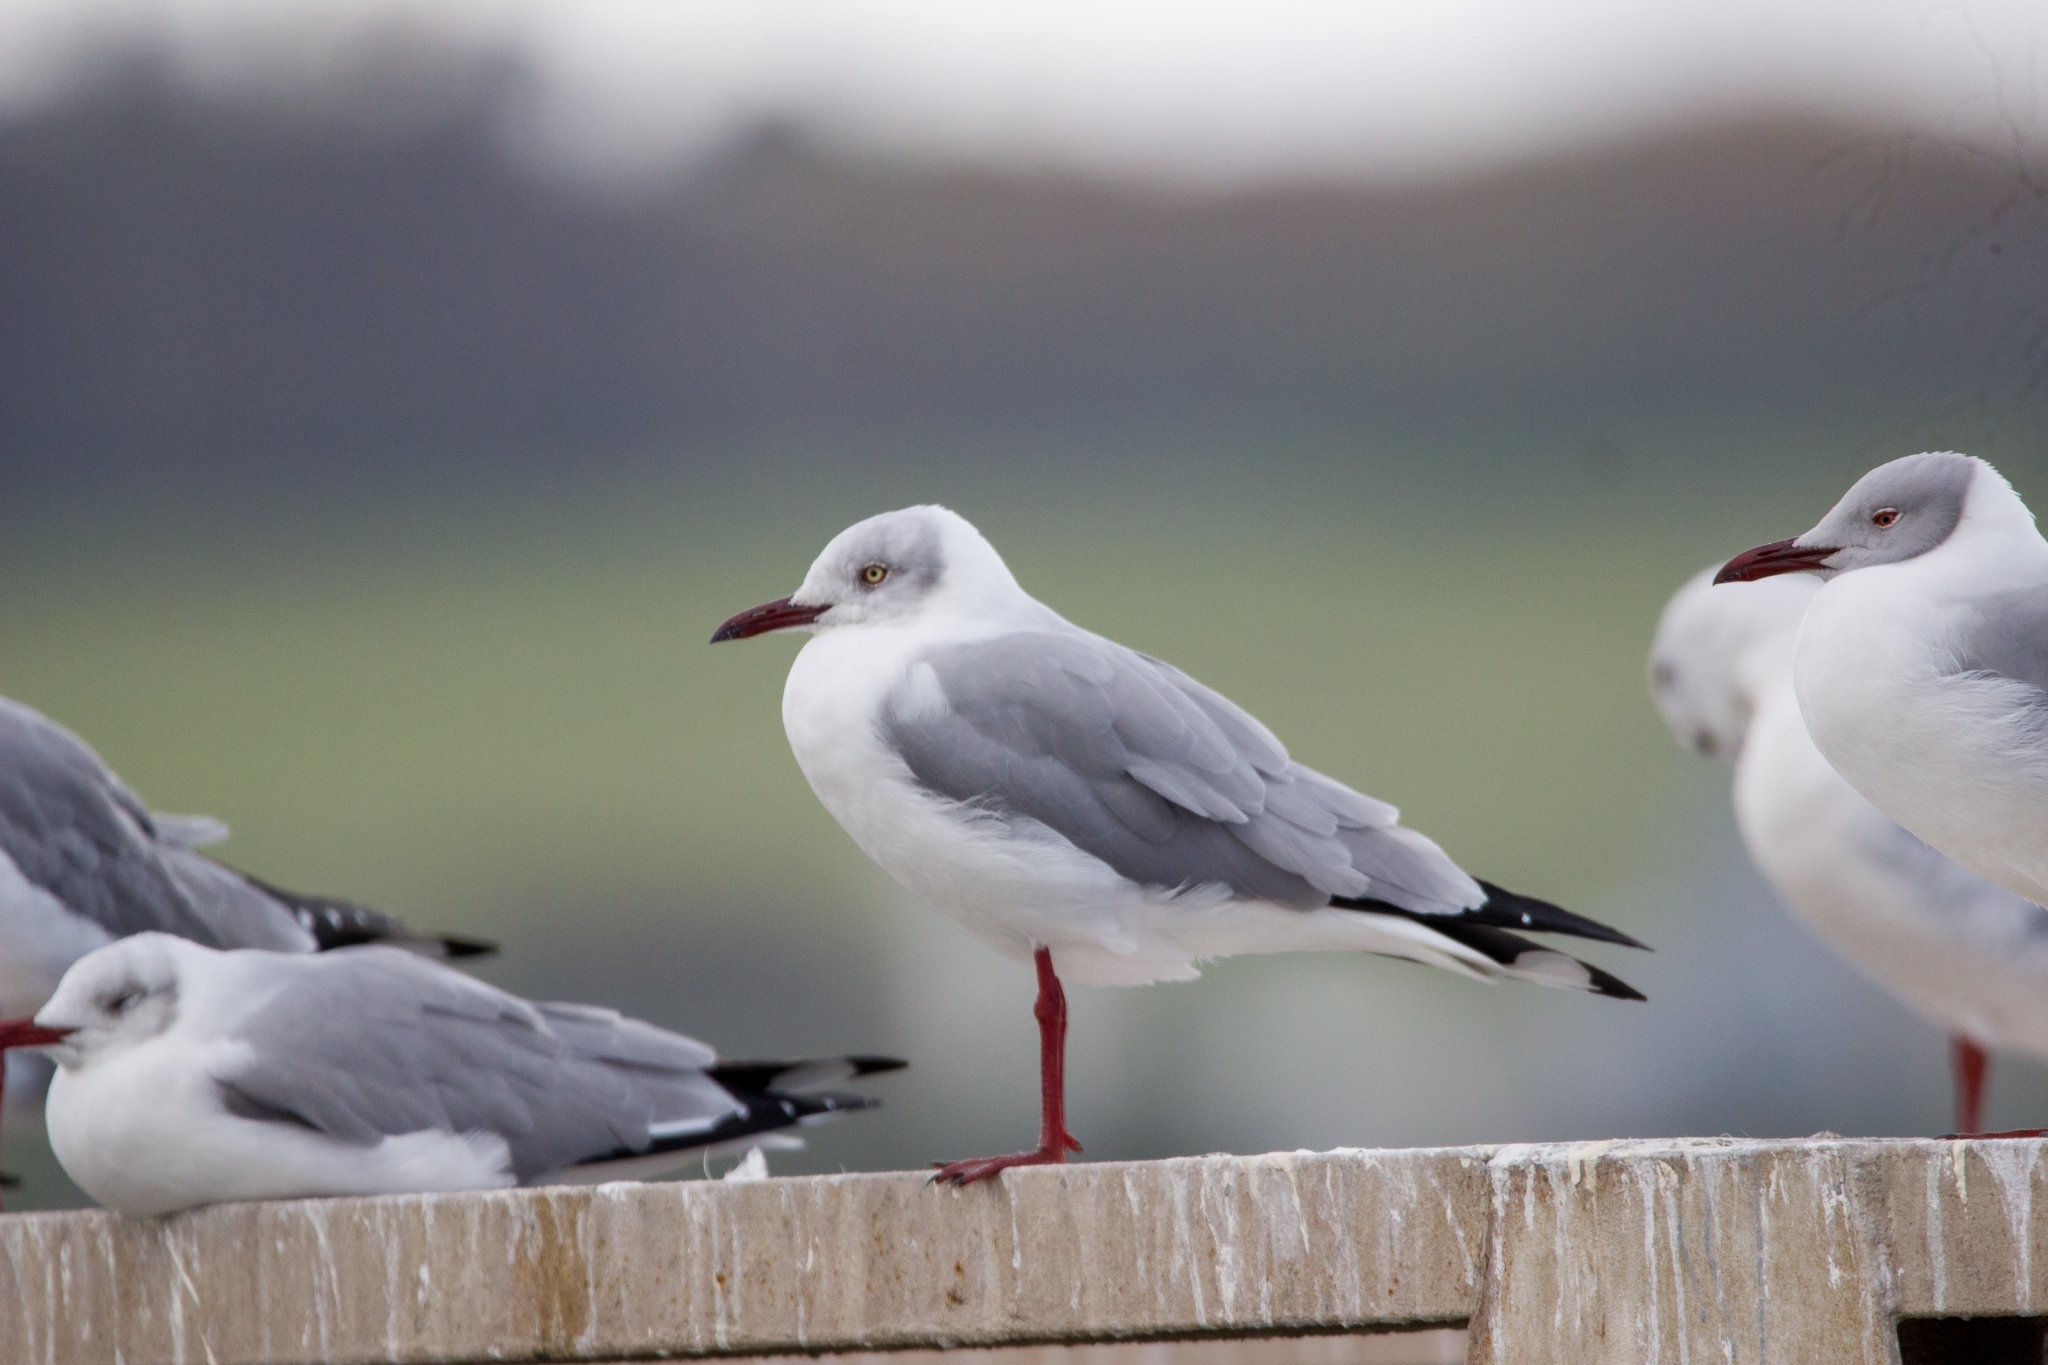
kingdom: Animalia
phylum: Chordata
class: Aves
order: Charadriiformes
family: Laridae
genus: Chroicocephalus
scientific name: Chroicocephalus cirrocephalus
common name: Grey-headed gull
